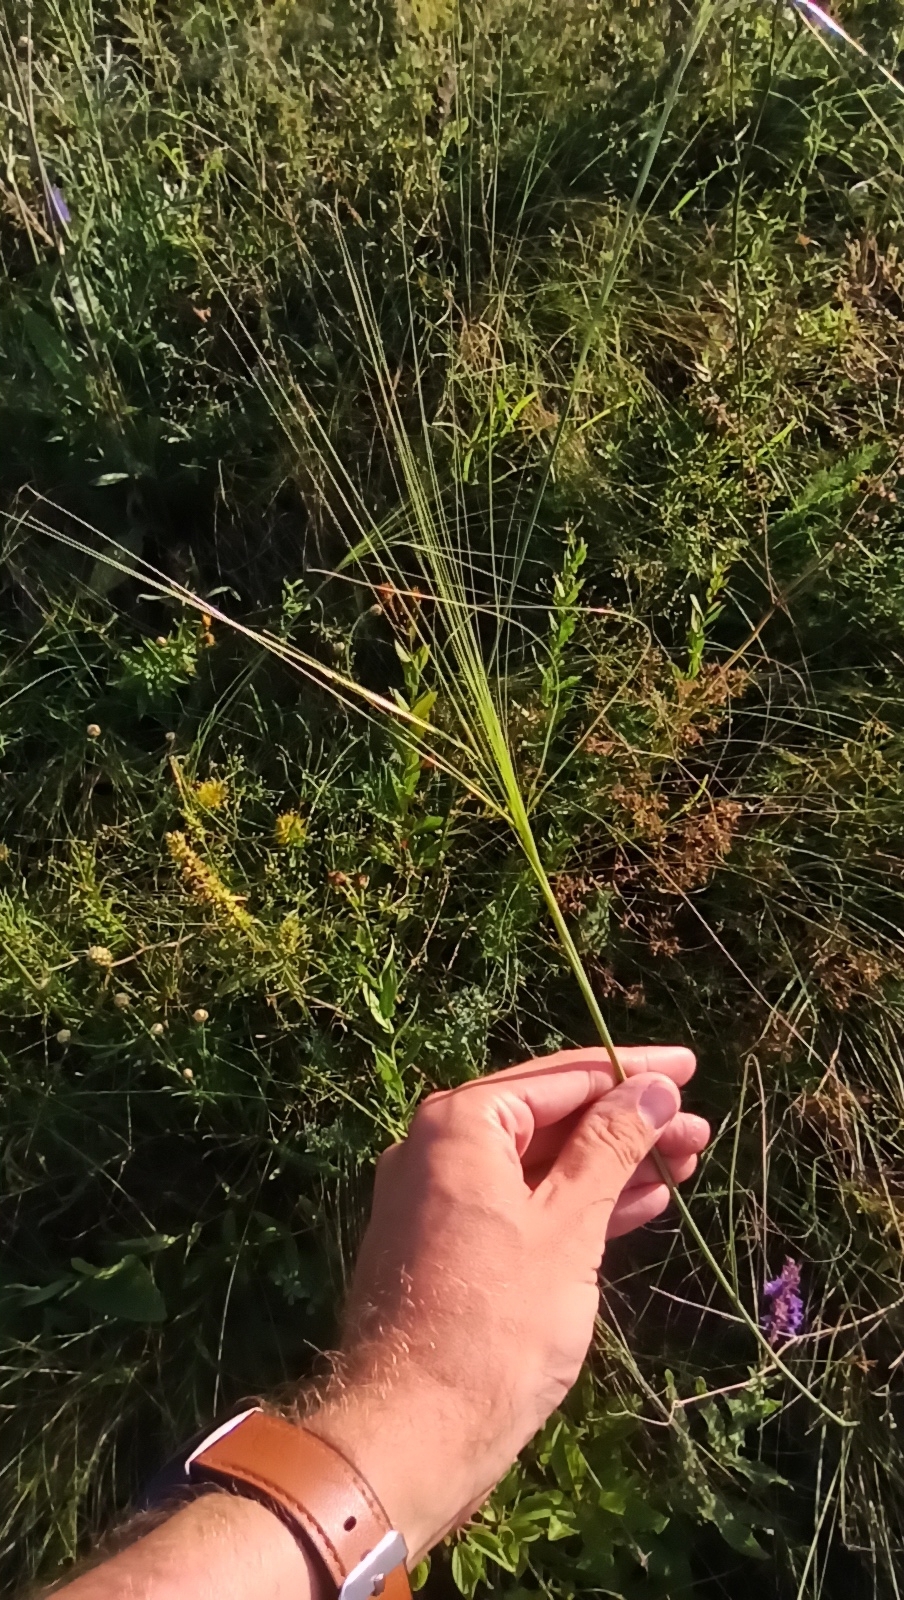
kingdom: Plantae
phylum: Tracheophyta
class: Liliopsida
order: Poales
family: Poaceae
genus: Stipa
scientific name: Stipa capillata
